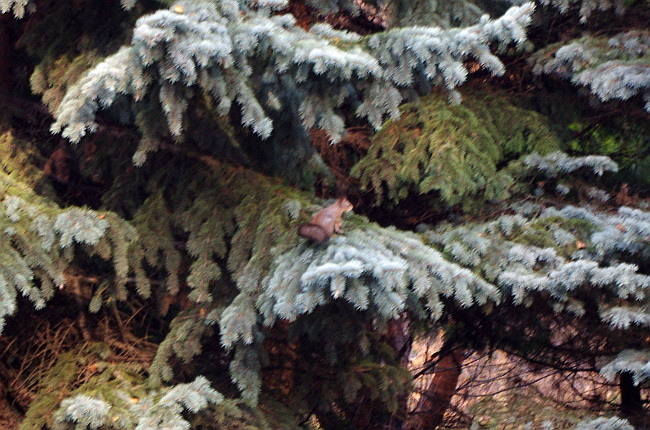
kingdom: Animalia
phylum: Chordata
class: Mammalia
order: Rodentia
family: Sciuridae
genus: Sciurus
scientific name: Sciurus vulgaris
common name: Eurasian red squirrel
